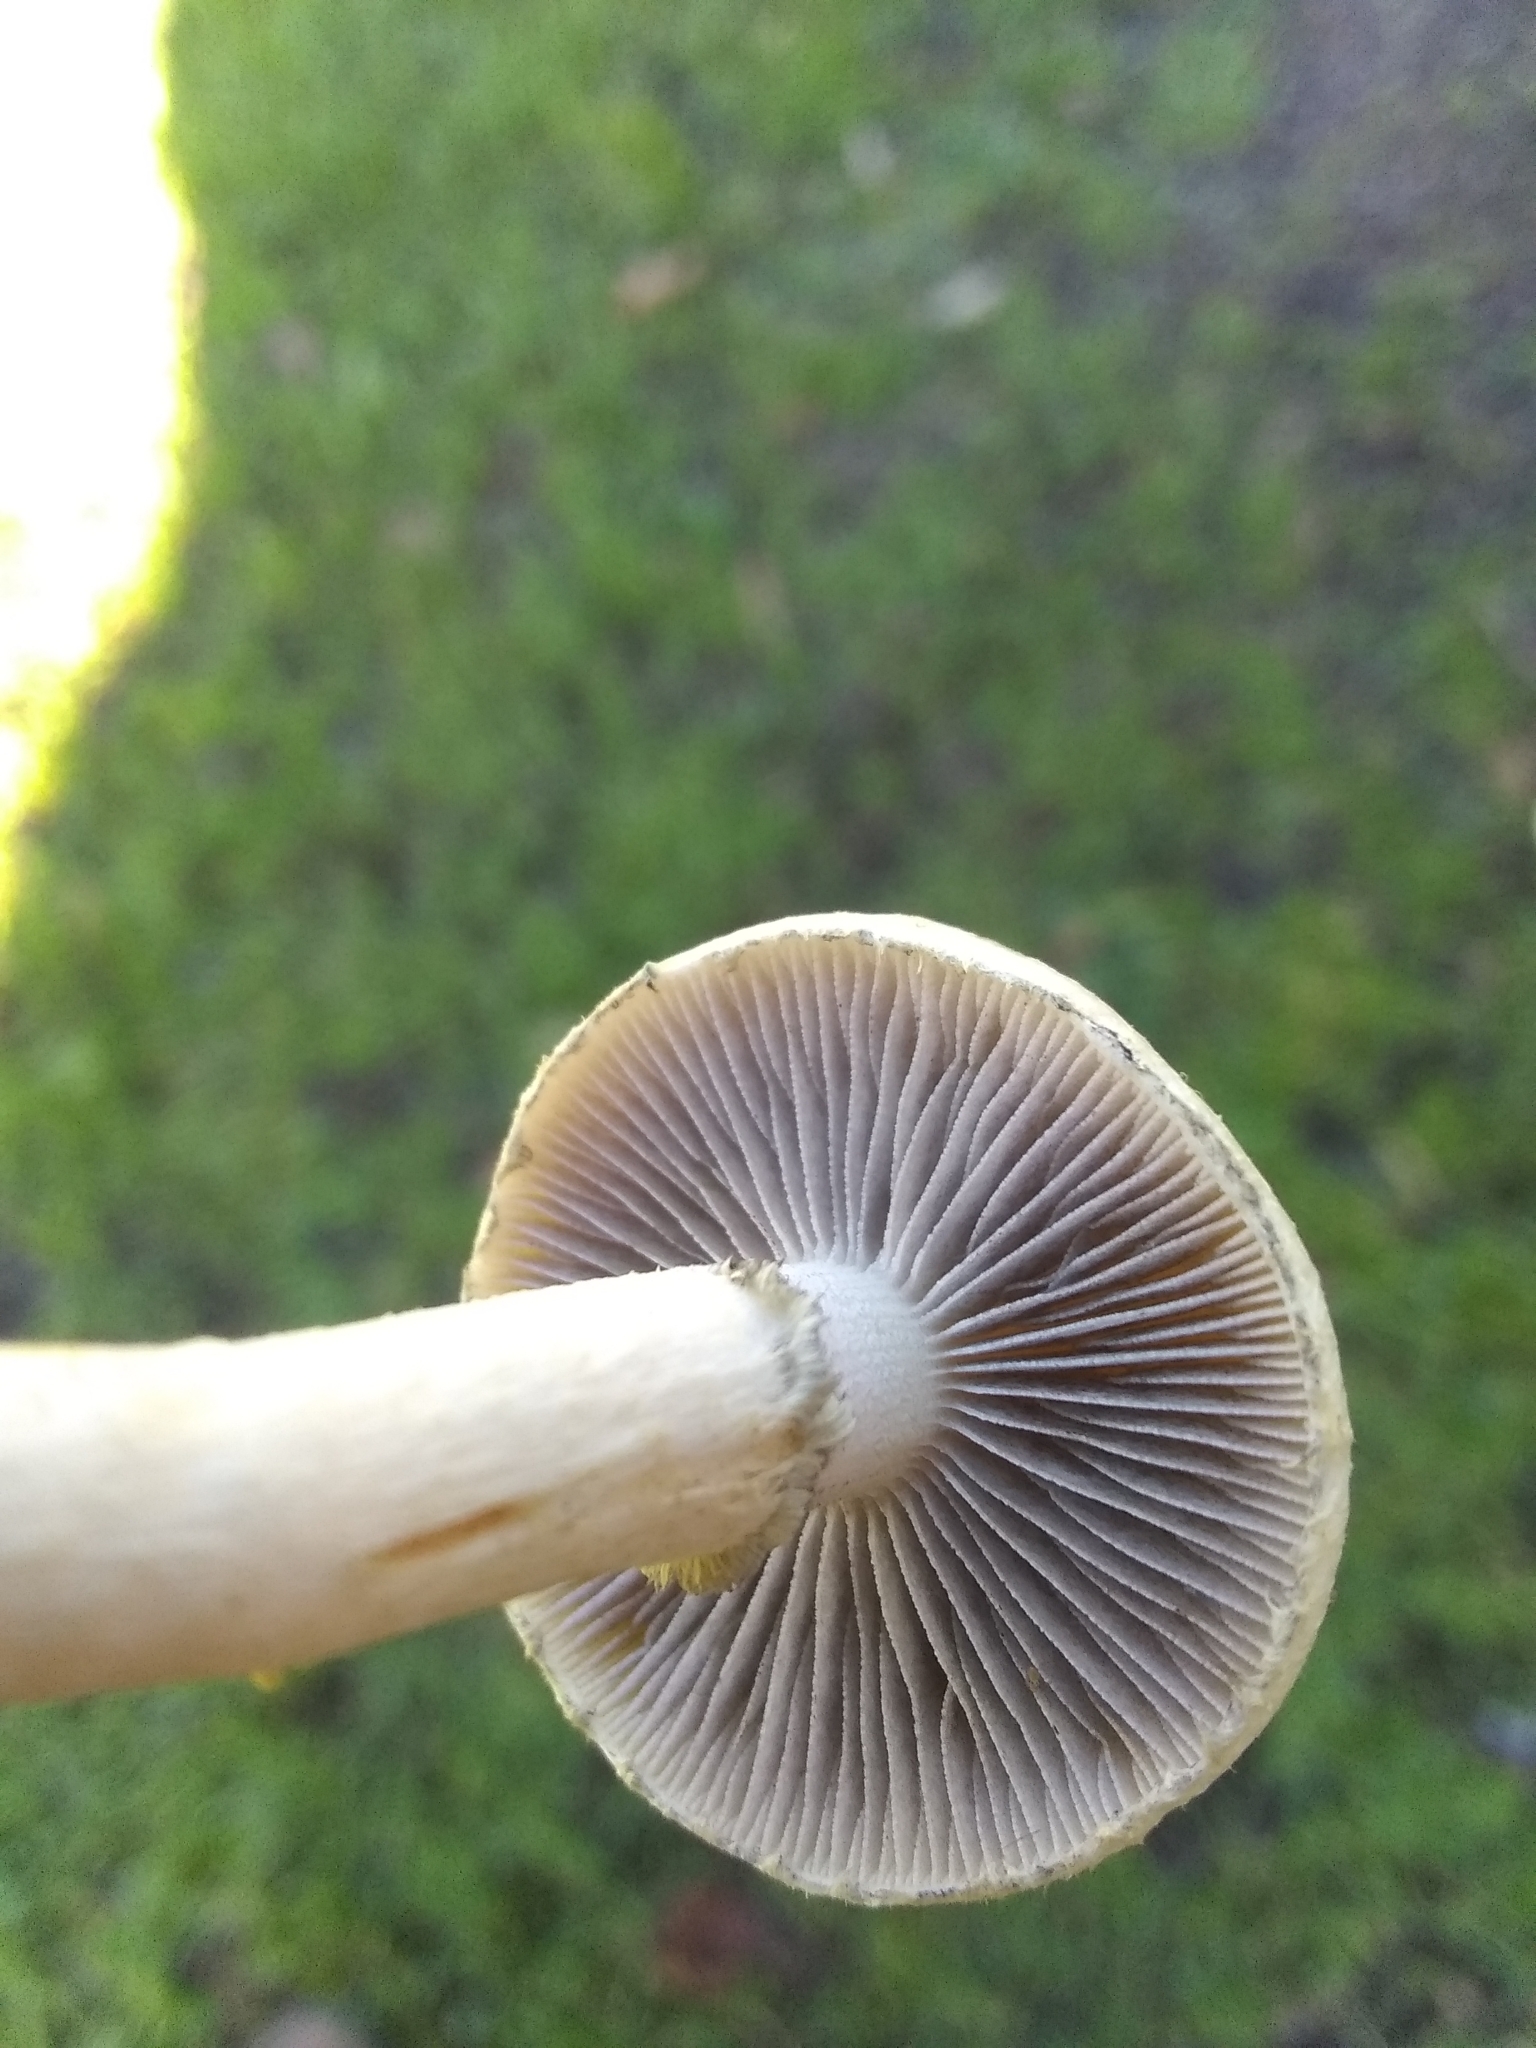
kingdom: Fungi
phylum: Basidiomycota
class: Agaricomycetes
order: Agaricales
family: Strophariaceae
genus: Leratiomyces
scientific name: Leratiomyces percevalii
